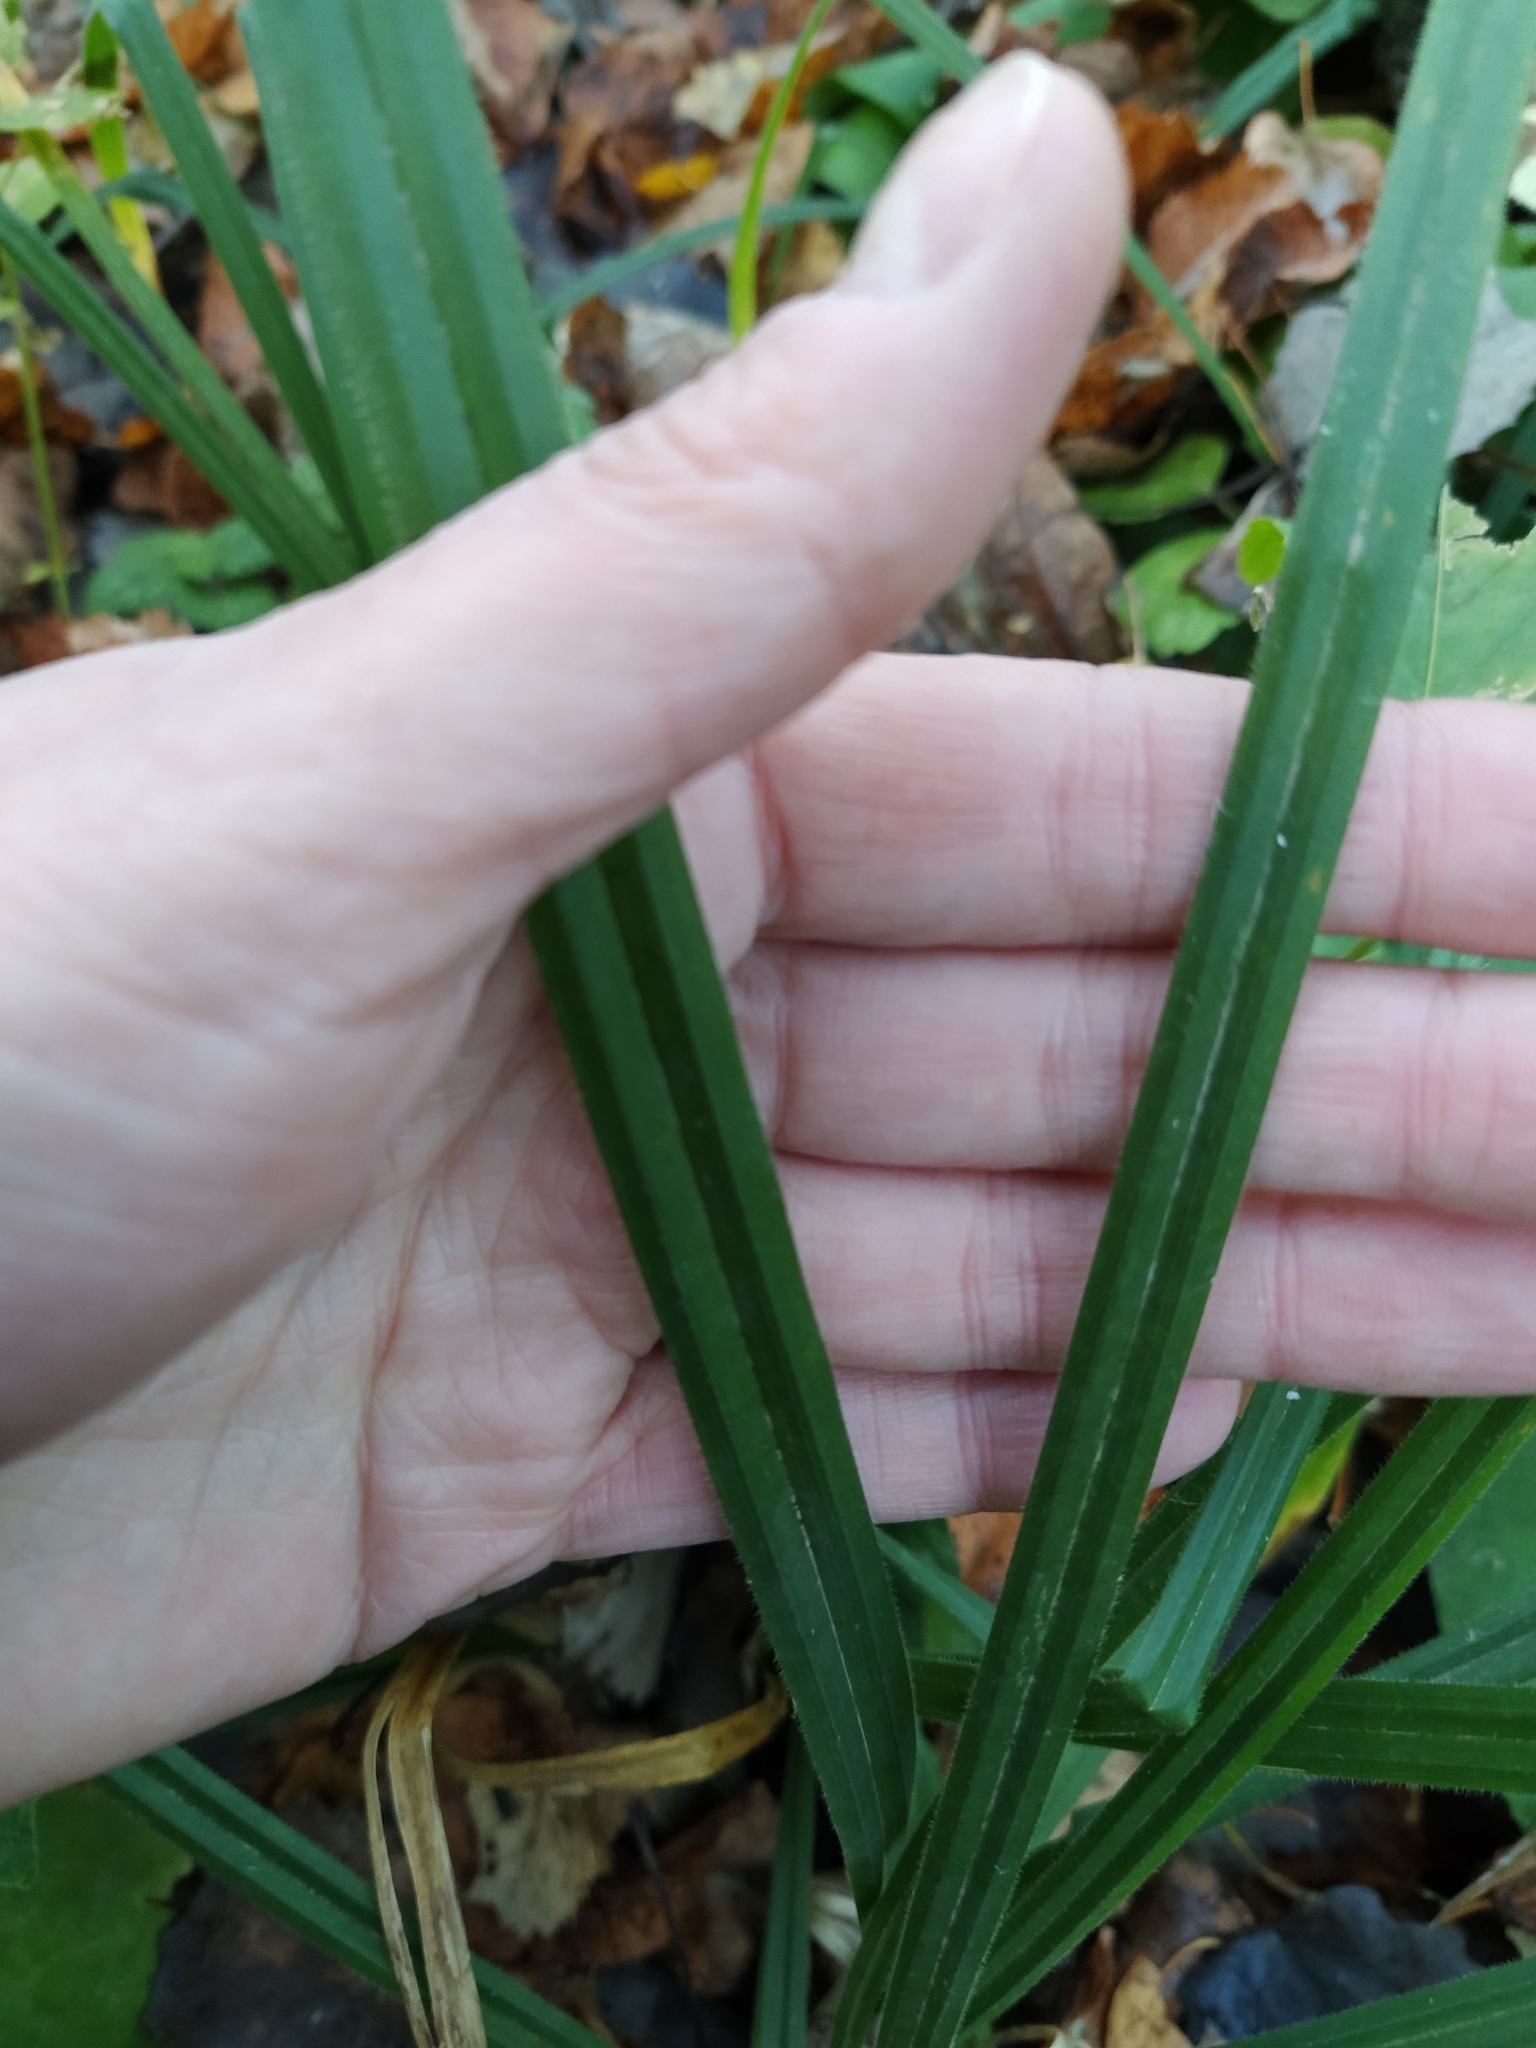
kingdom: Plantae
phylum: Tracheophyta
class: Liliopsida
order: Poales
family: Cyperaceae
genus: Carex
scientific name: Carex pilosa
